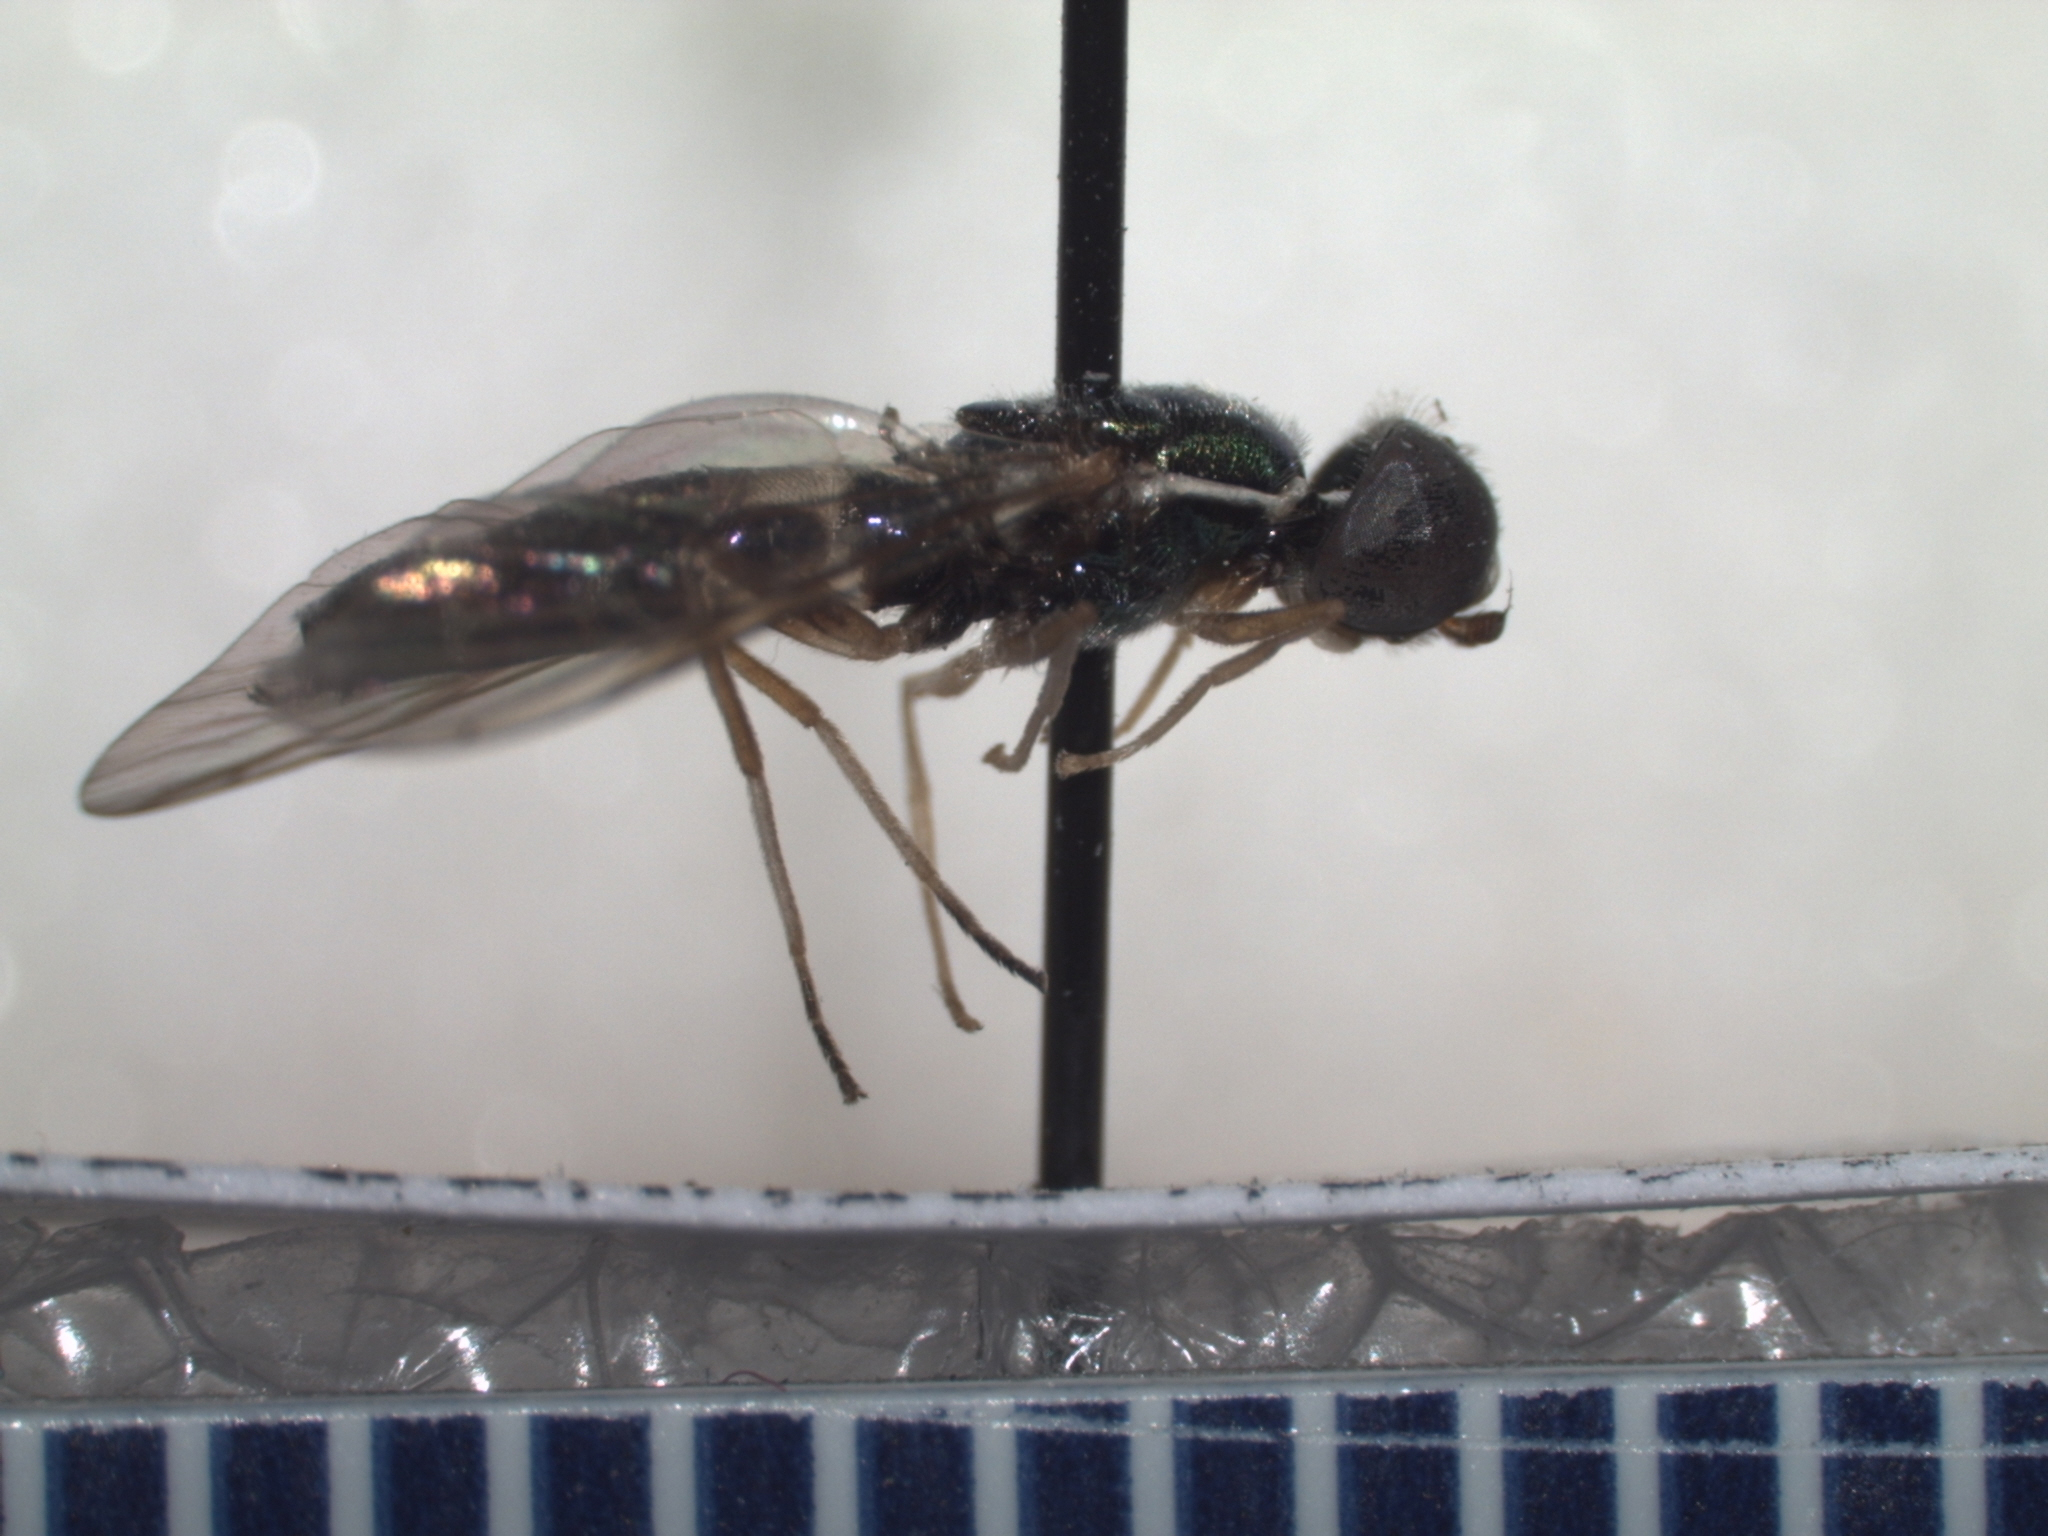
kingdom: Animalia
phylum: Arthropoda
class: Insecta
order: Diptera
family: Stratiomyidae
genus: Sargus
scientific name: Sargus fasciatus
